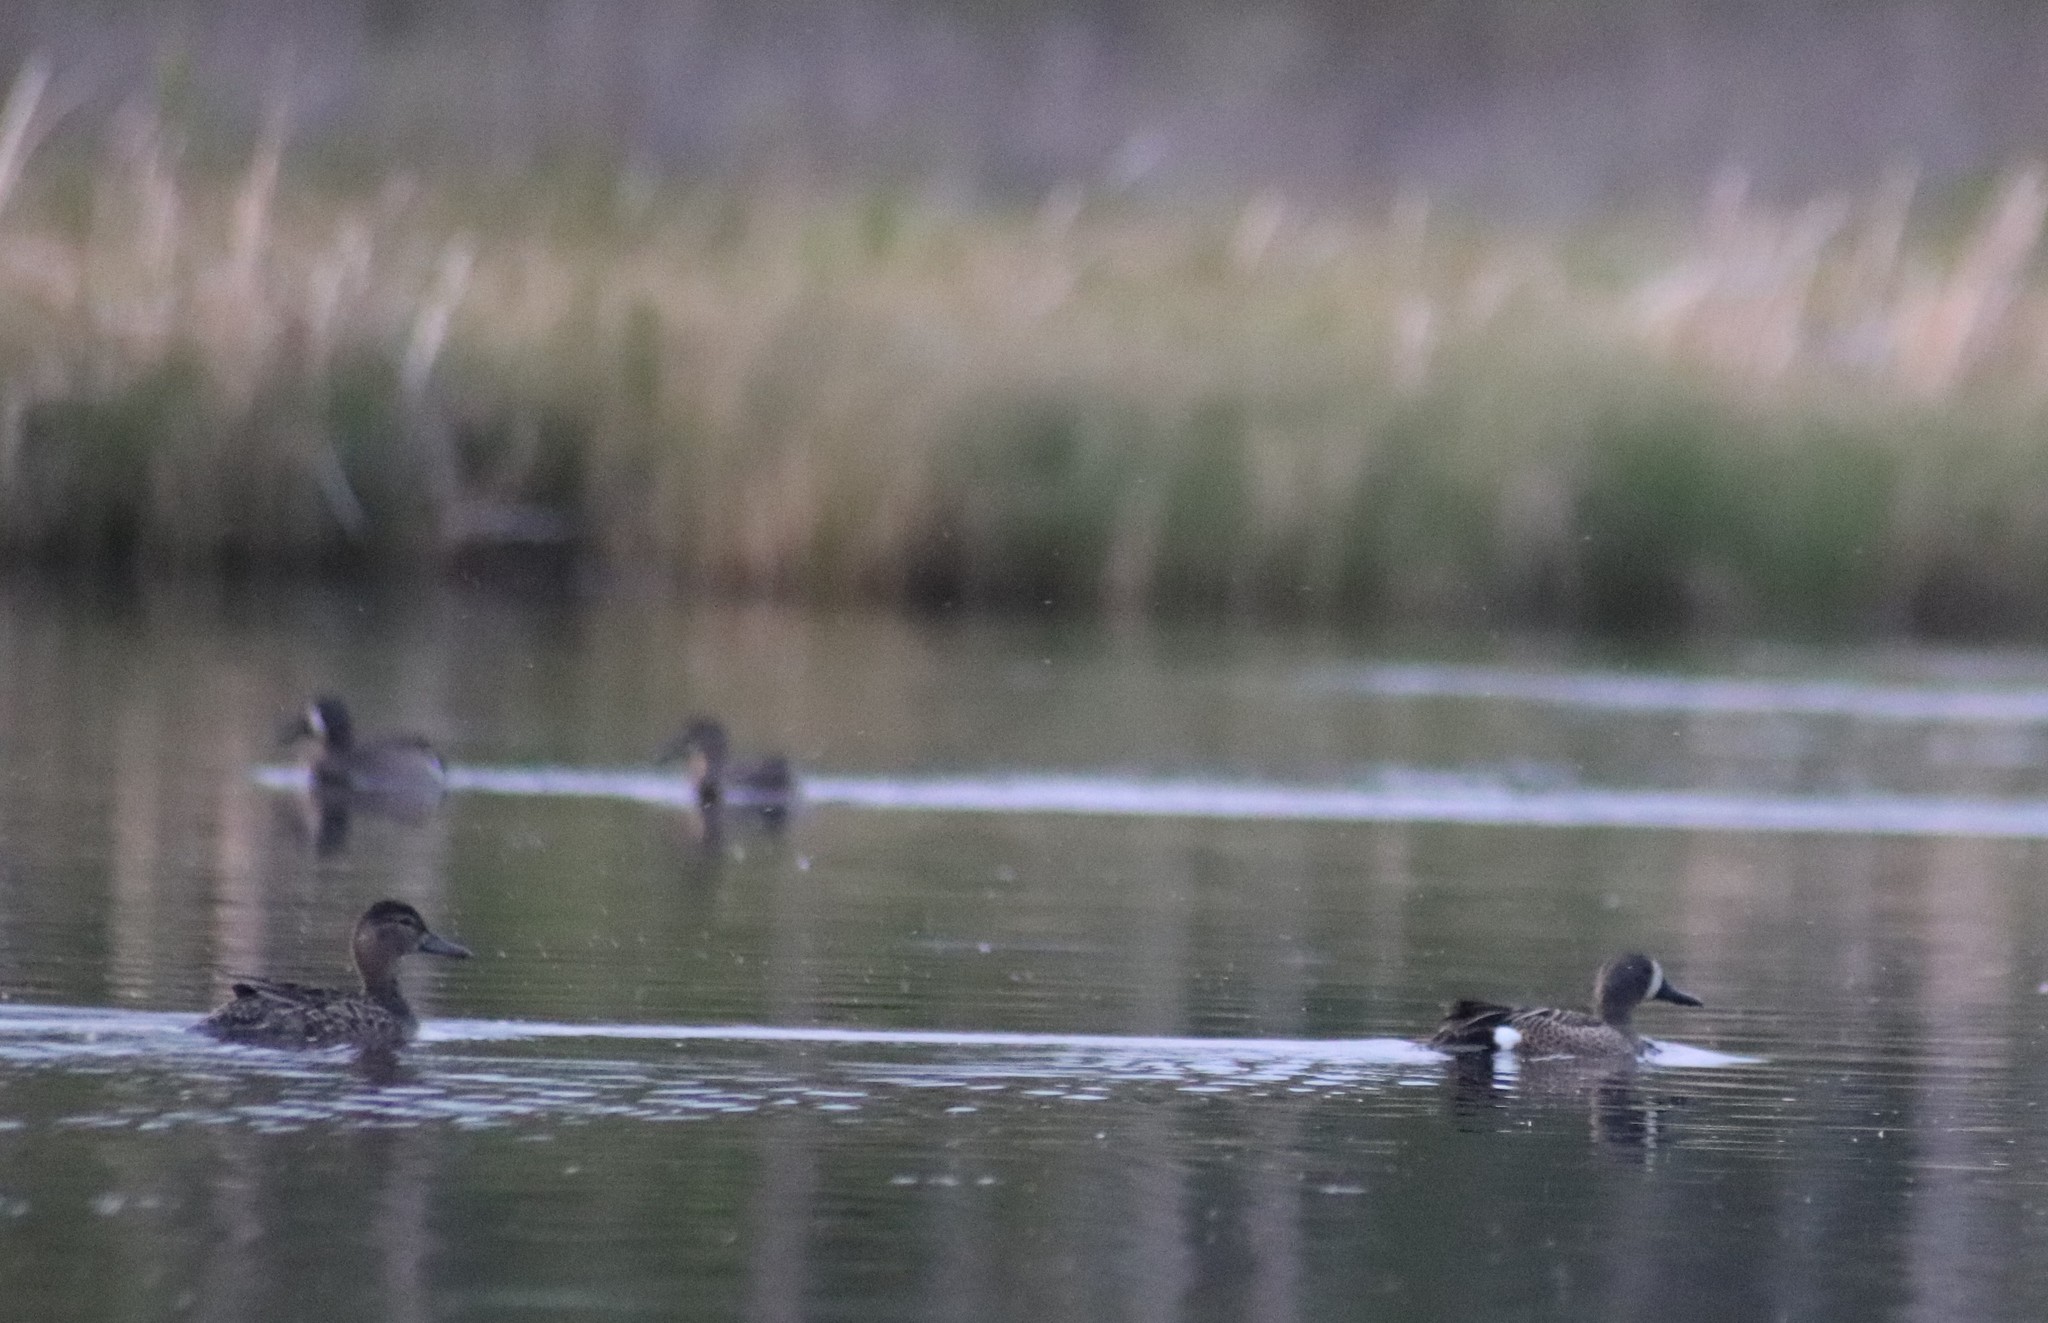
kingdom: Animalia
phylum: Chordata
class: Aves
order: Anseriformes
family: Anatidae
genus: Spatula
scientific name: Spatula discors
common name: Blue-winged teal
